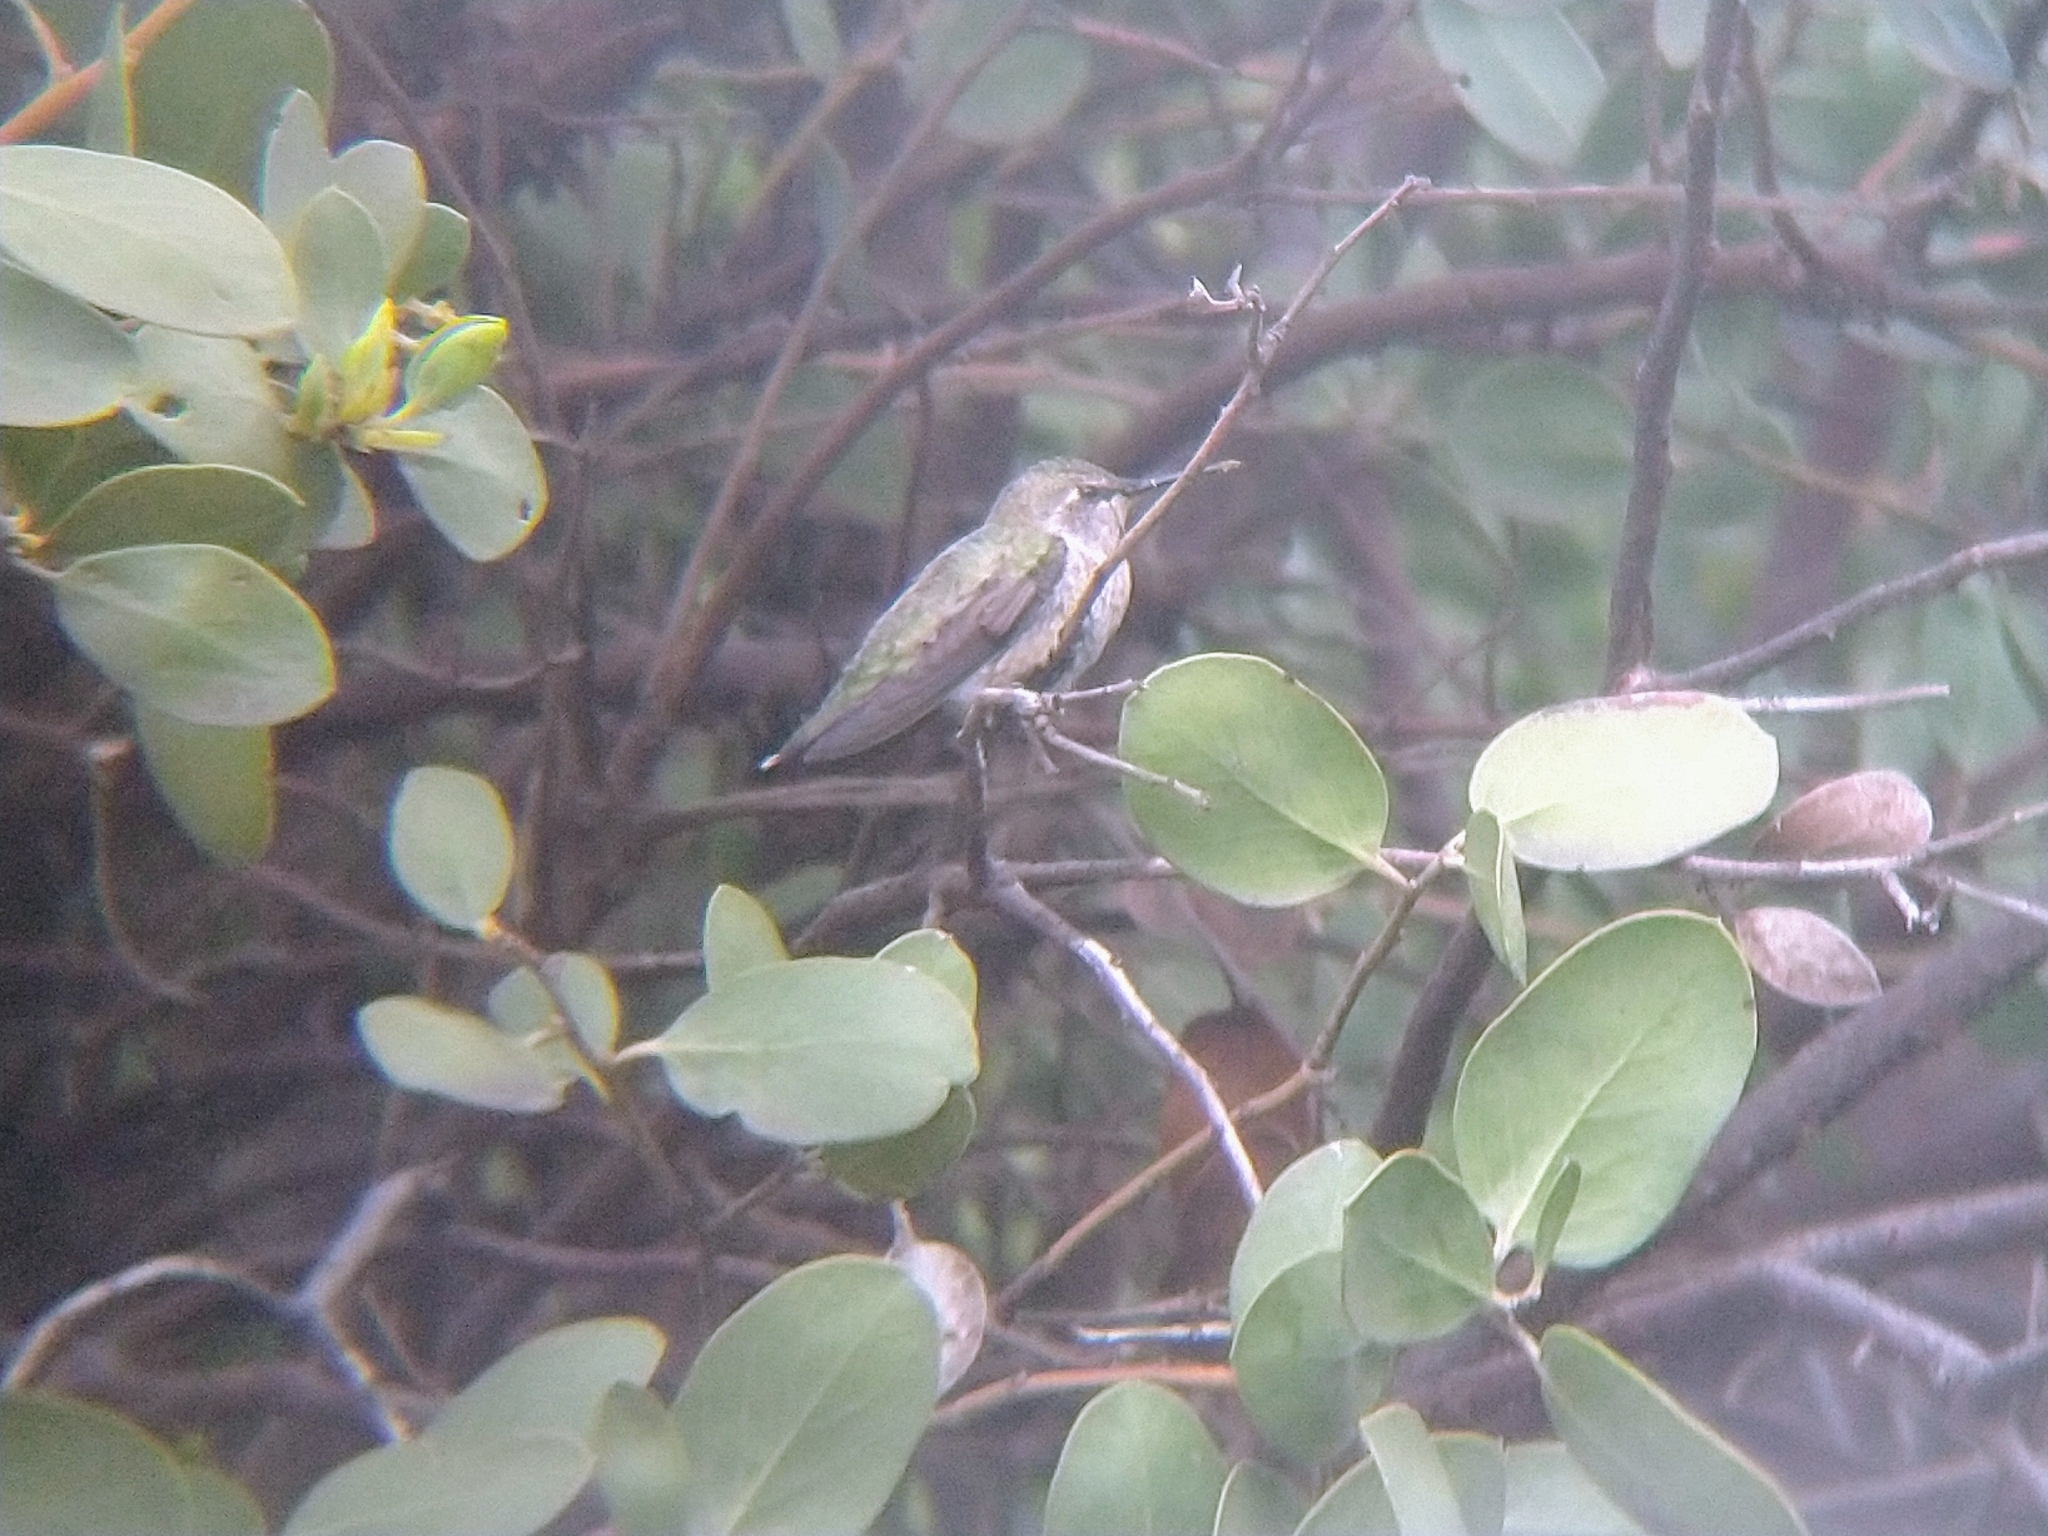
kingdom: Animalia
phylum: Chordata
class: Aves
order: Apodiformes
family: Trochilidae
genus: Calypte
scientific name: Calypte anna
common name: Anna's hummingbird
